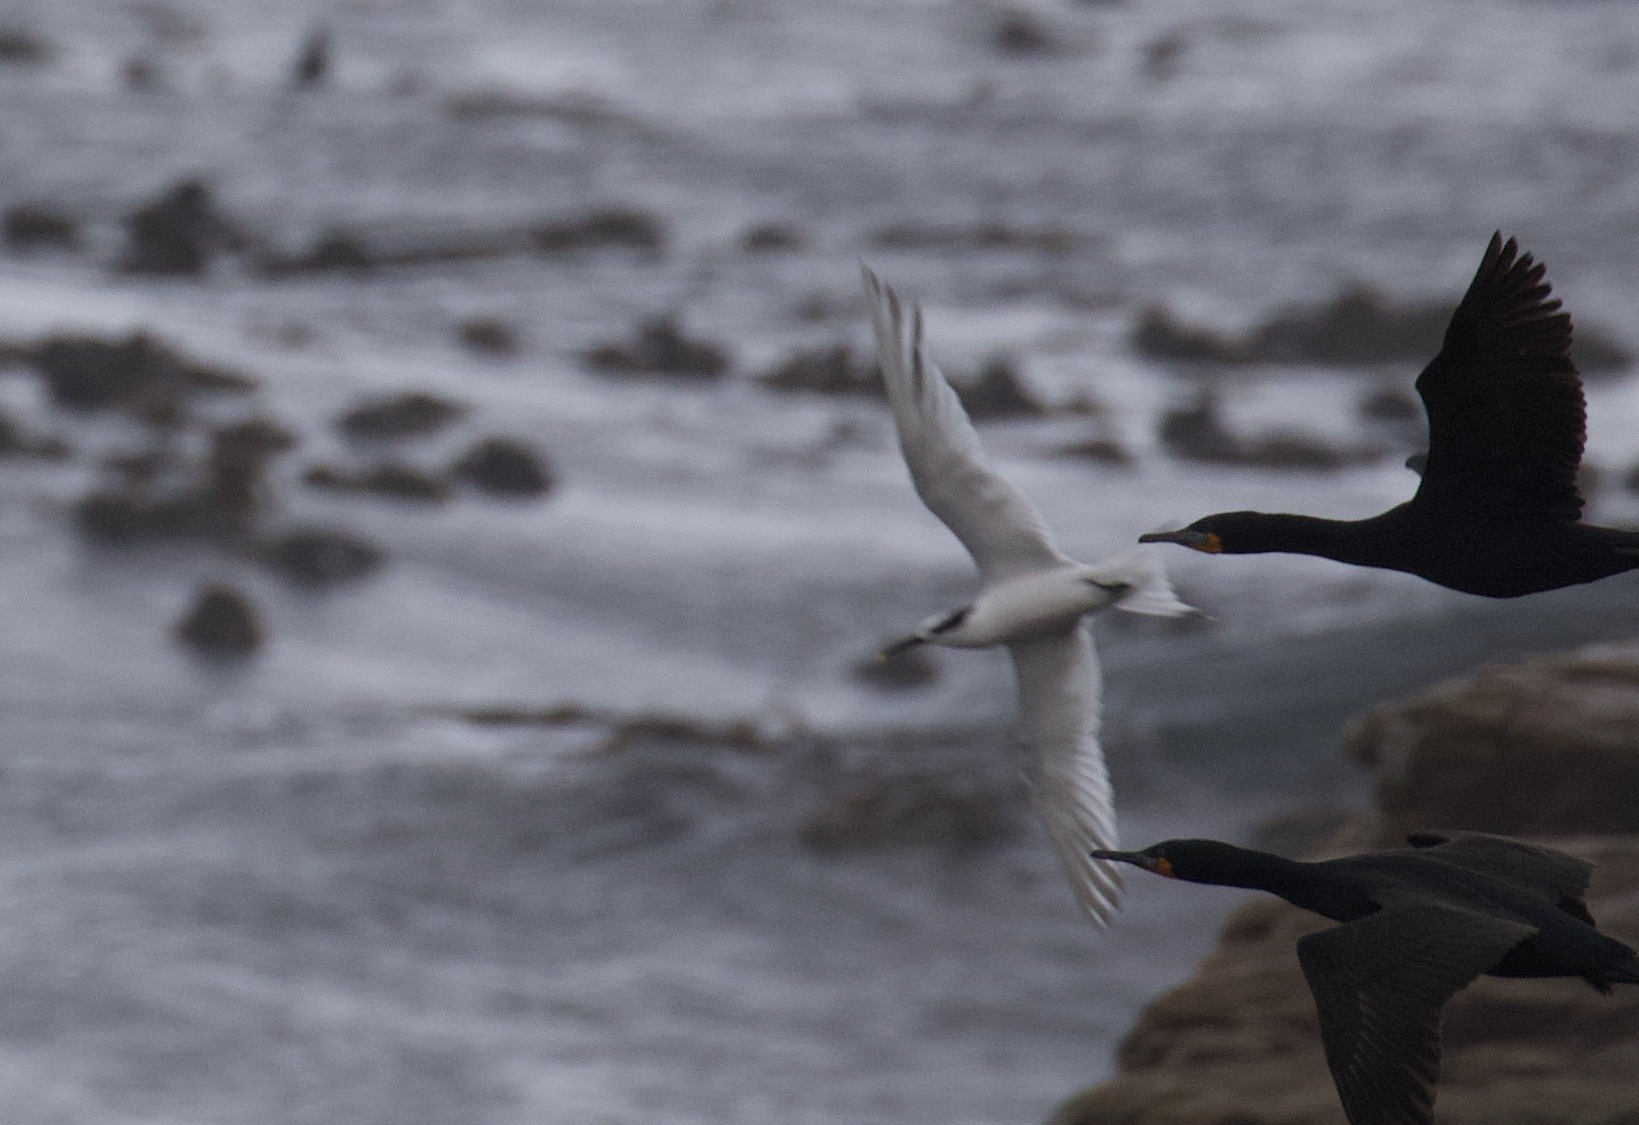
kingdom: Animalia
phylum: Chordata
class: Aves
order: Charadriiformes
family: Laridae
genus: Thalasseus
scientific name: Thalasseus sandvicensis
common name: Sandwich tern
